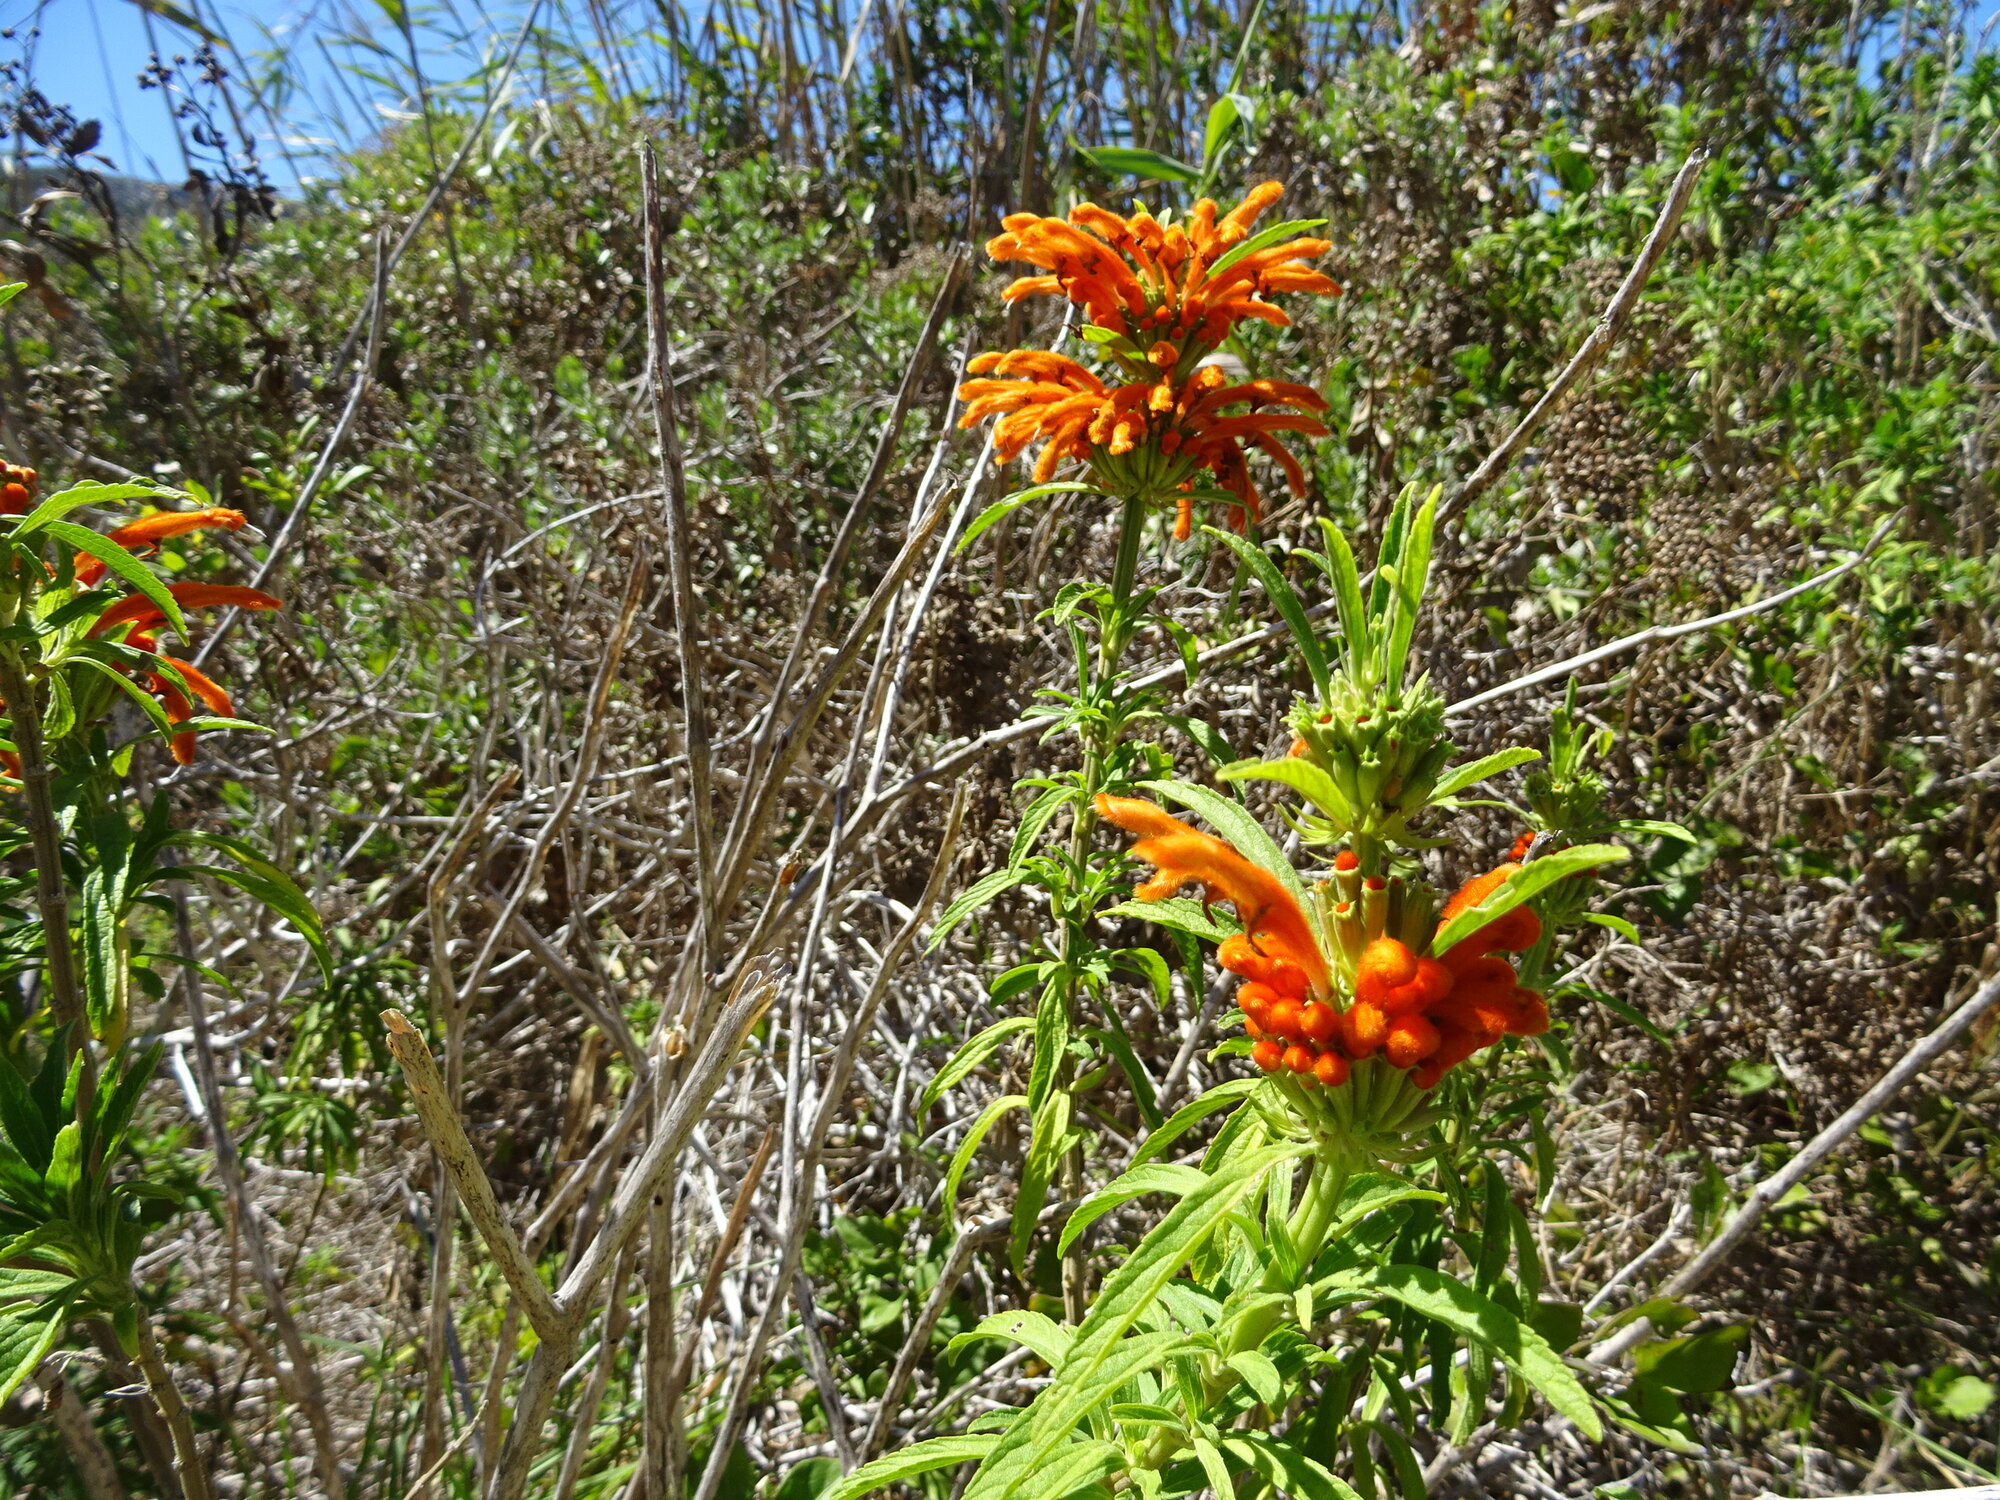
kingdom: Plantae
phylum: Tracheophyta
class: Magnoliopsida
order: Lamiales
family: Lamiaceae
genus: Leonotis
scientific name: Leonotis leonurus
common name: Lion's ear
